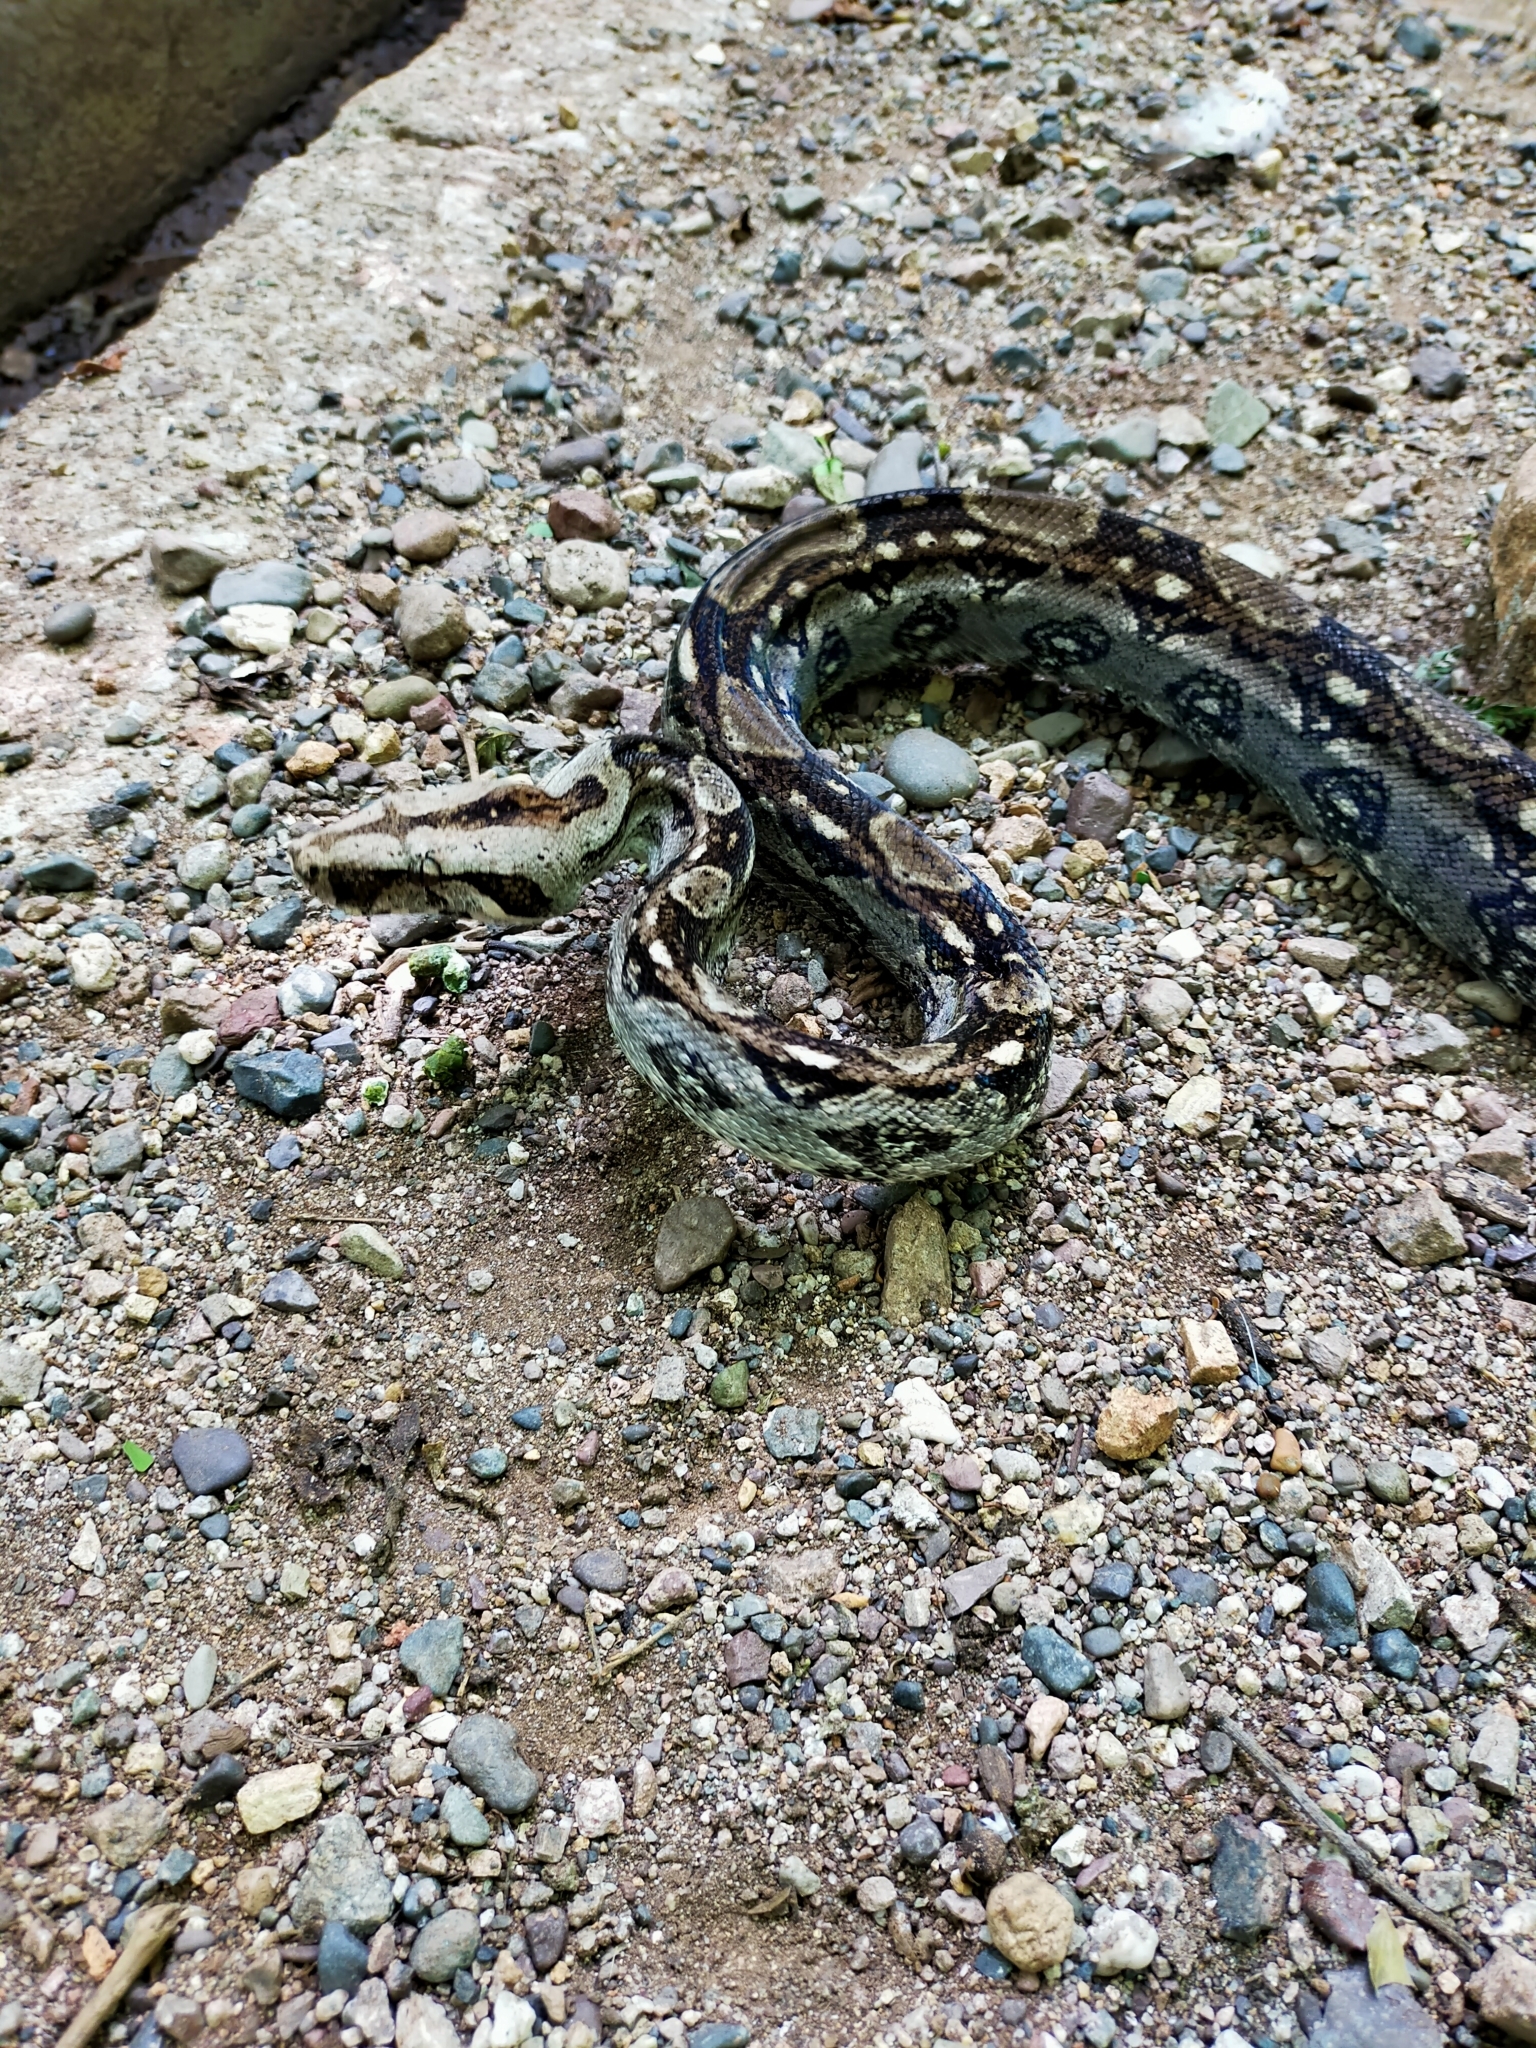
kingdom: Animalia
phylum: Chordata
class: Squamata
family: Boidae
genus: Boa
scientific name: Boa
